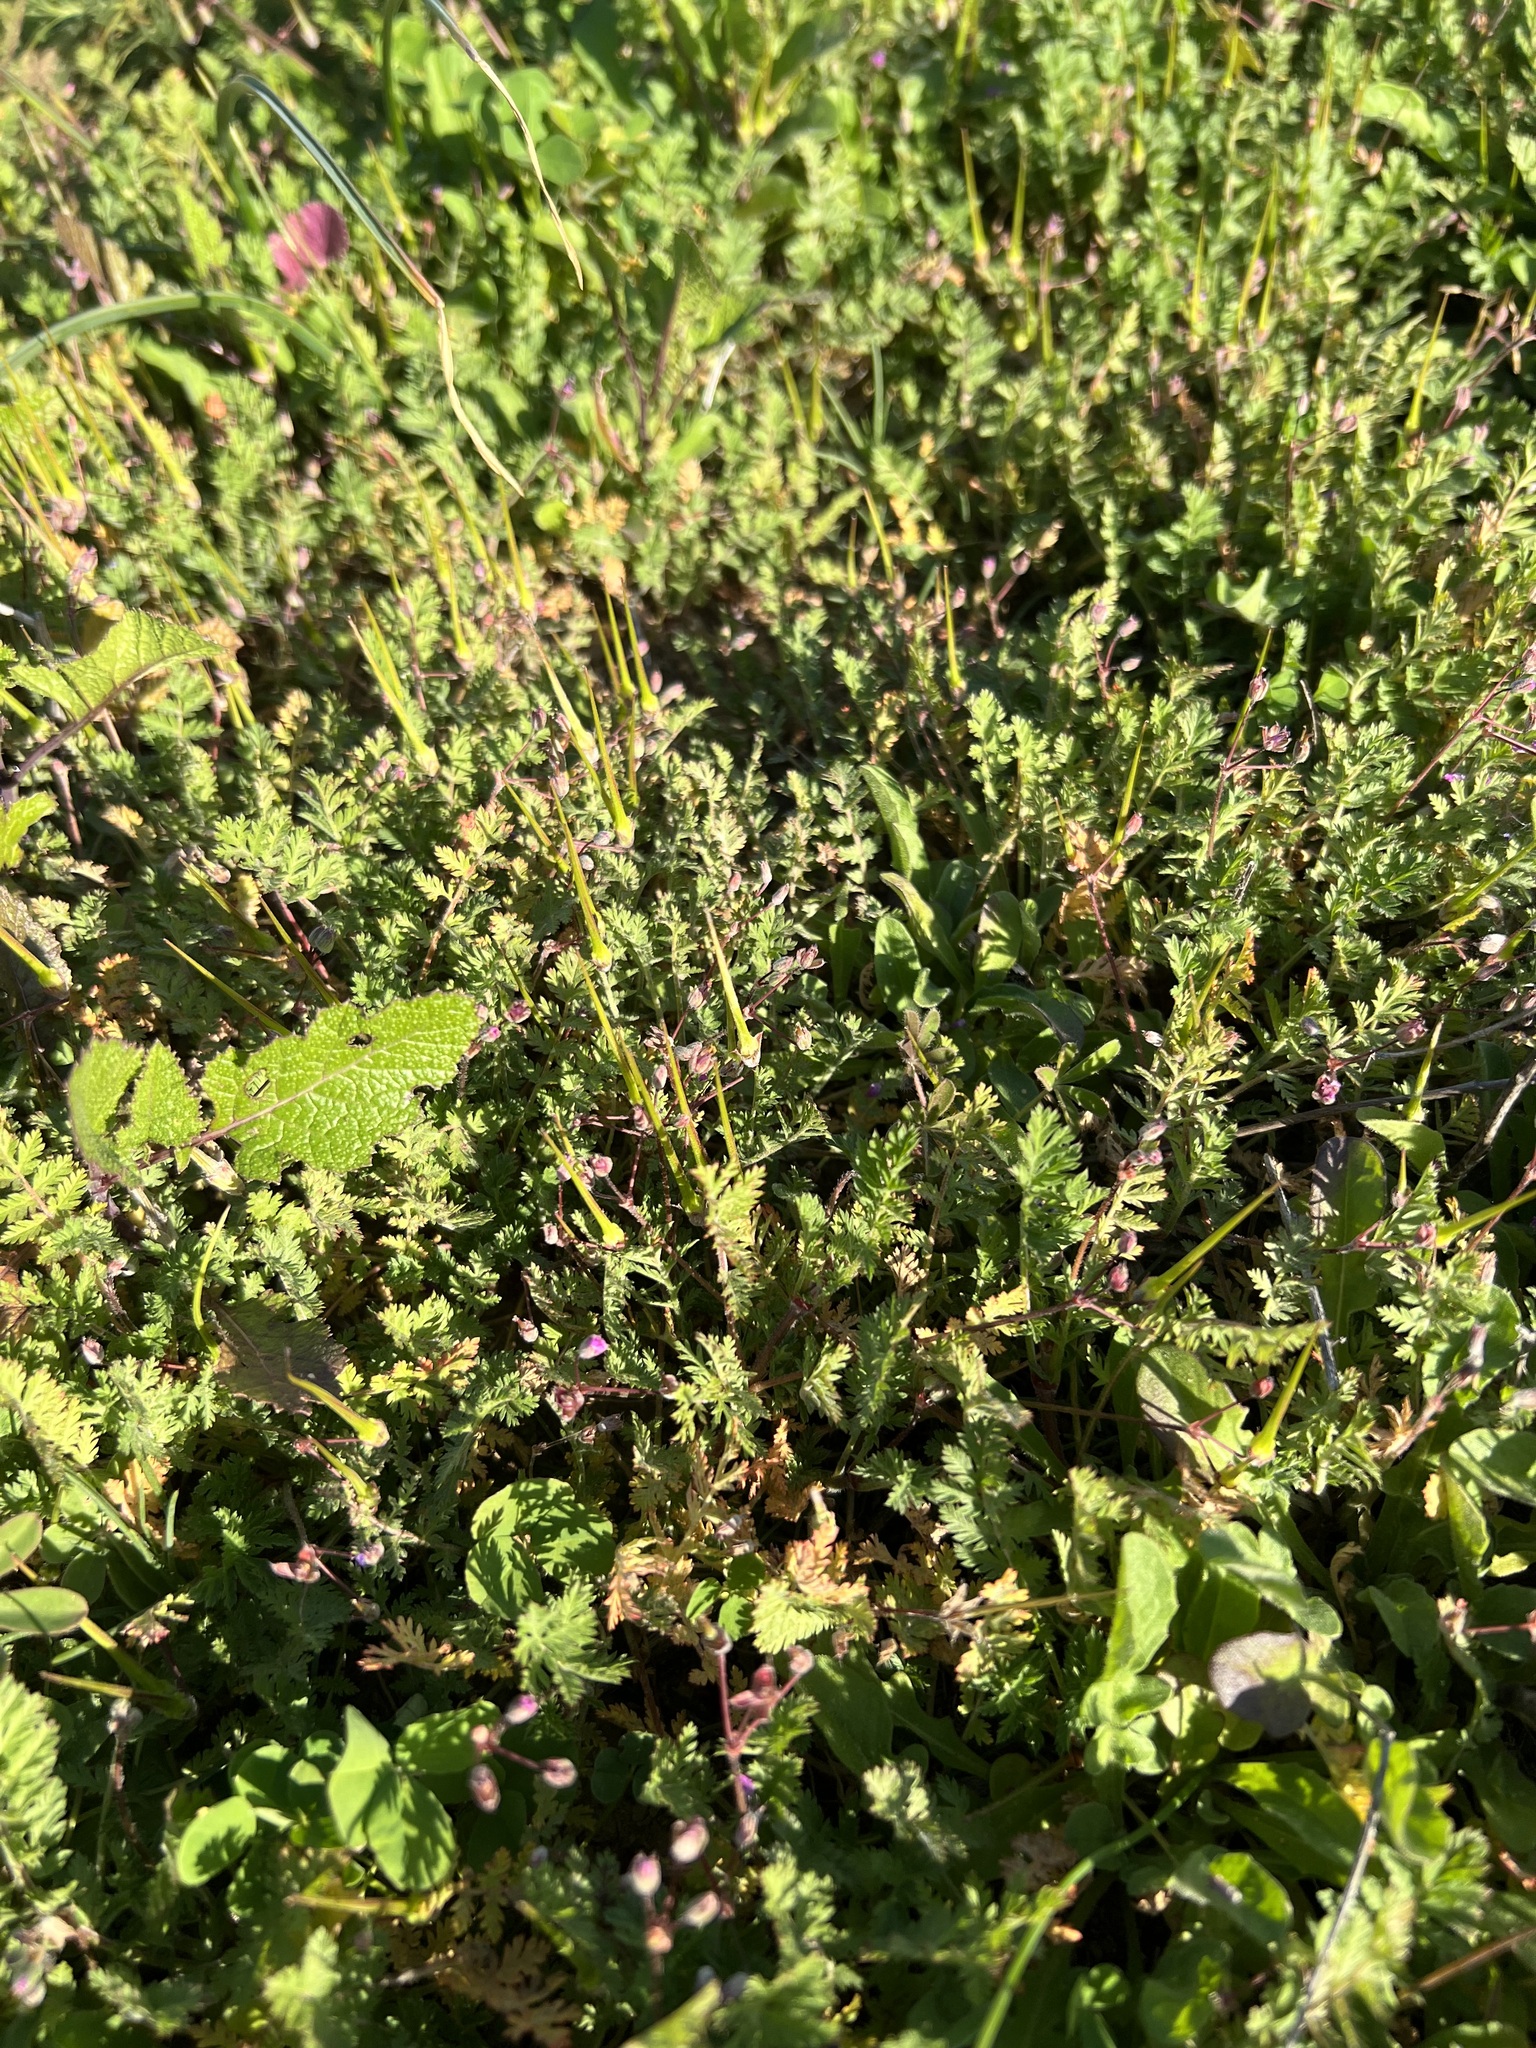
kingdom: Plantae
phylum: Tracheophyta
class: Magnoliopsida
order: Geraniales
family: Geraniaceae
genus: Erodium
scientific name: Erodium cicutarium
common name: Common stork's-bill
